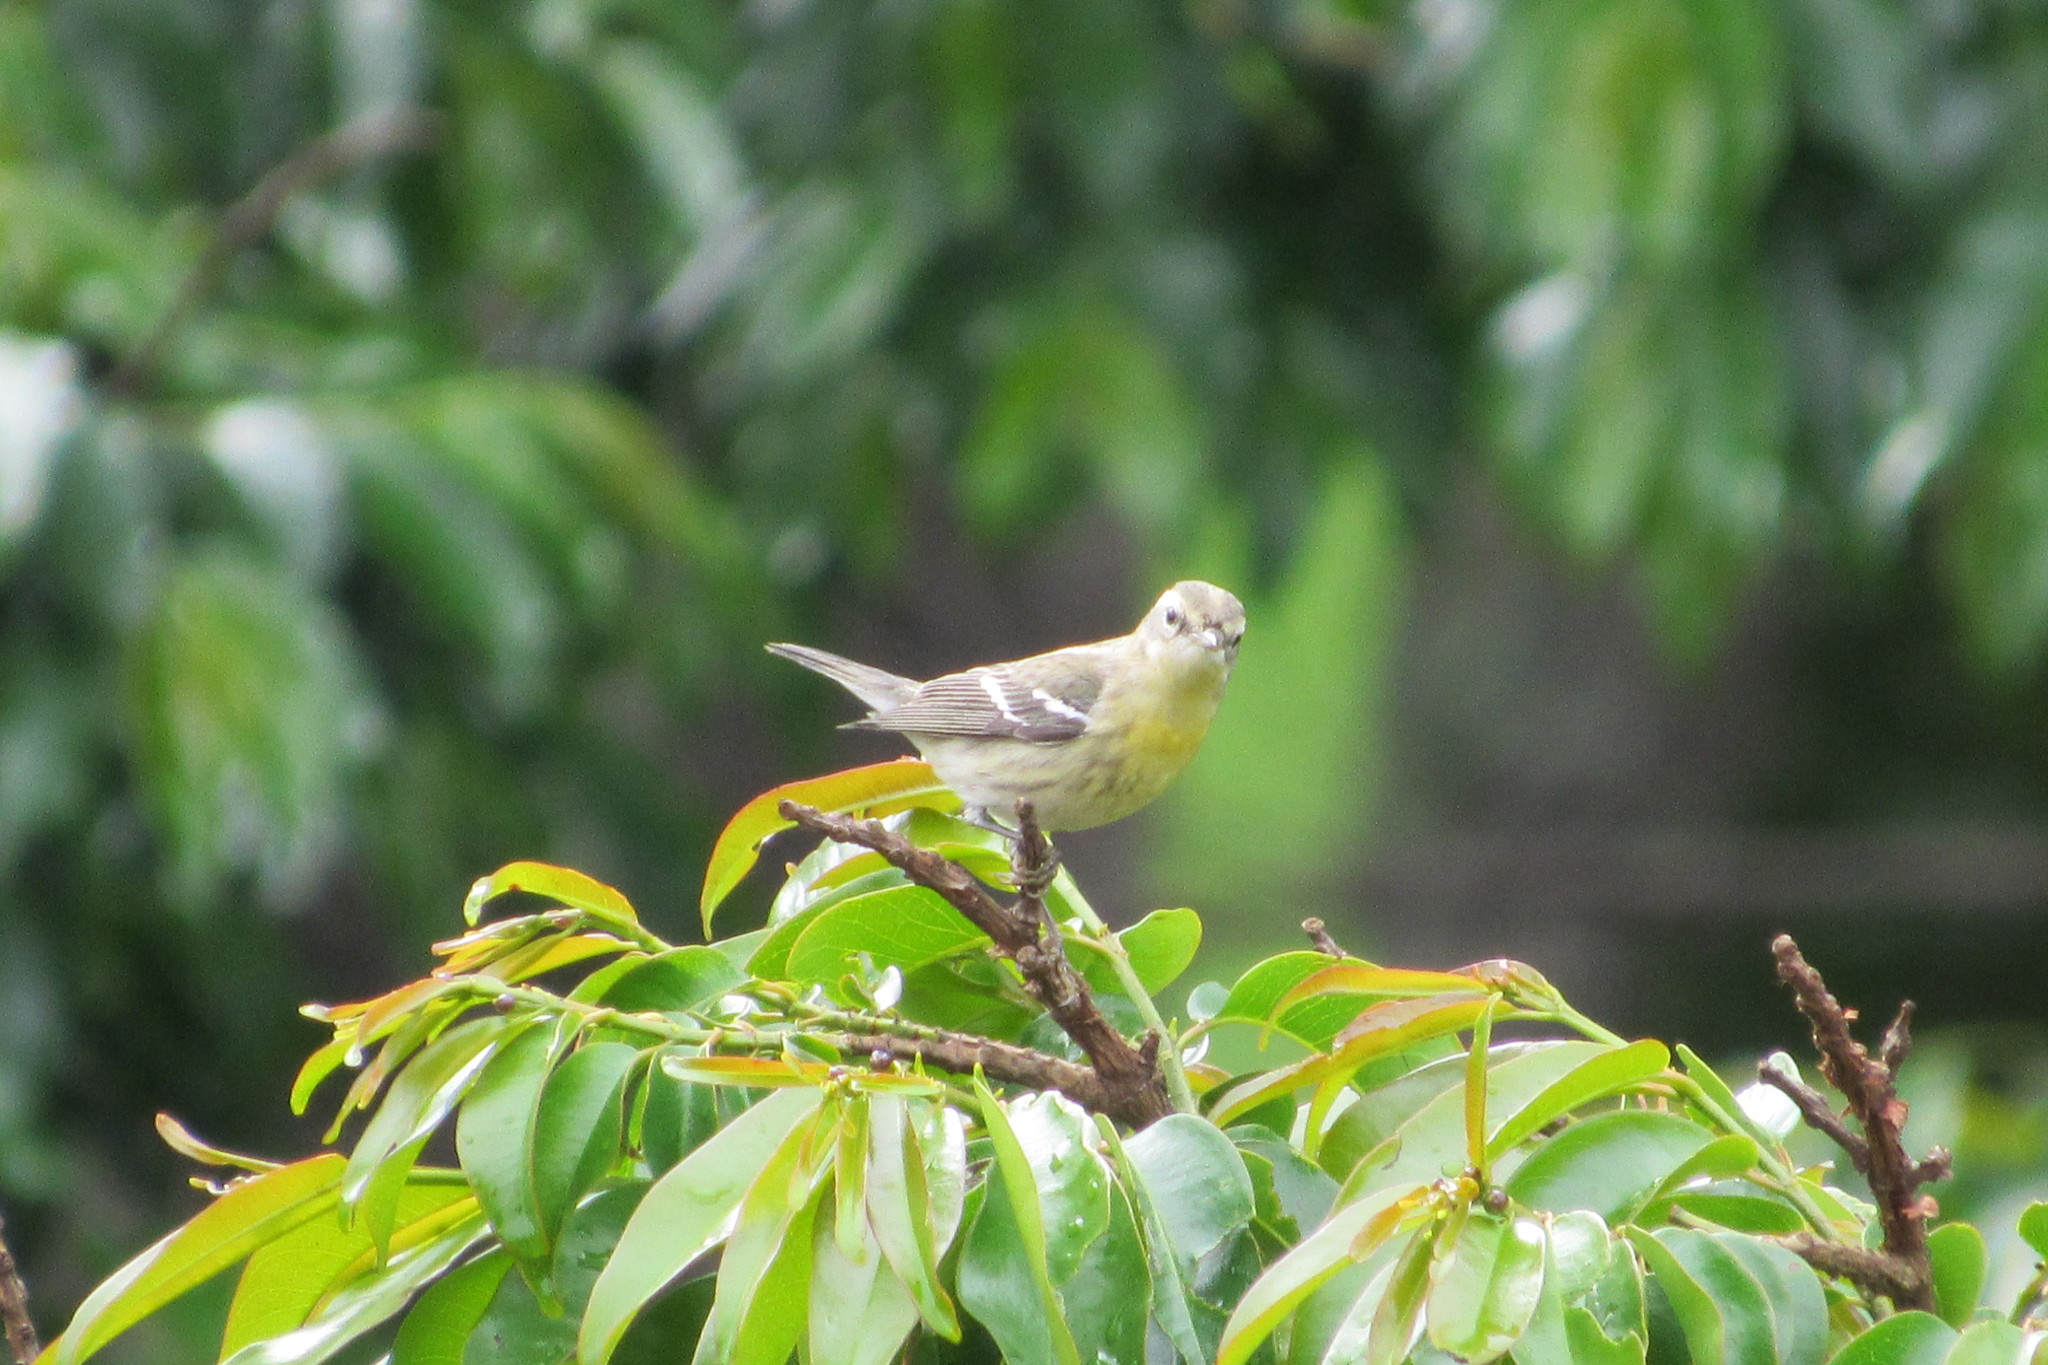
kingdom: Animalia
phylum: Chordata
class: Aves
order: Passeriformes
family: Parulidae
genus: Setophaga
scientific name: Setophaga fusca
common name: Blackburnian warbler
